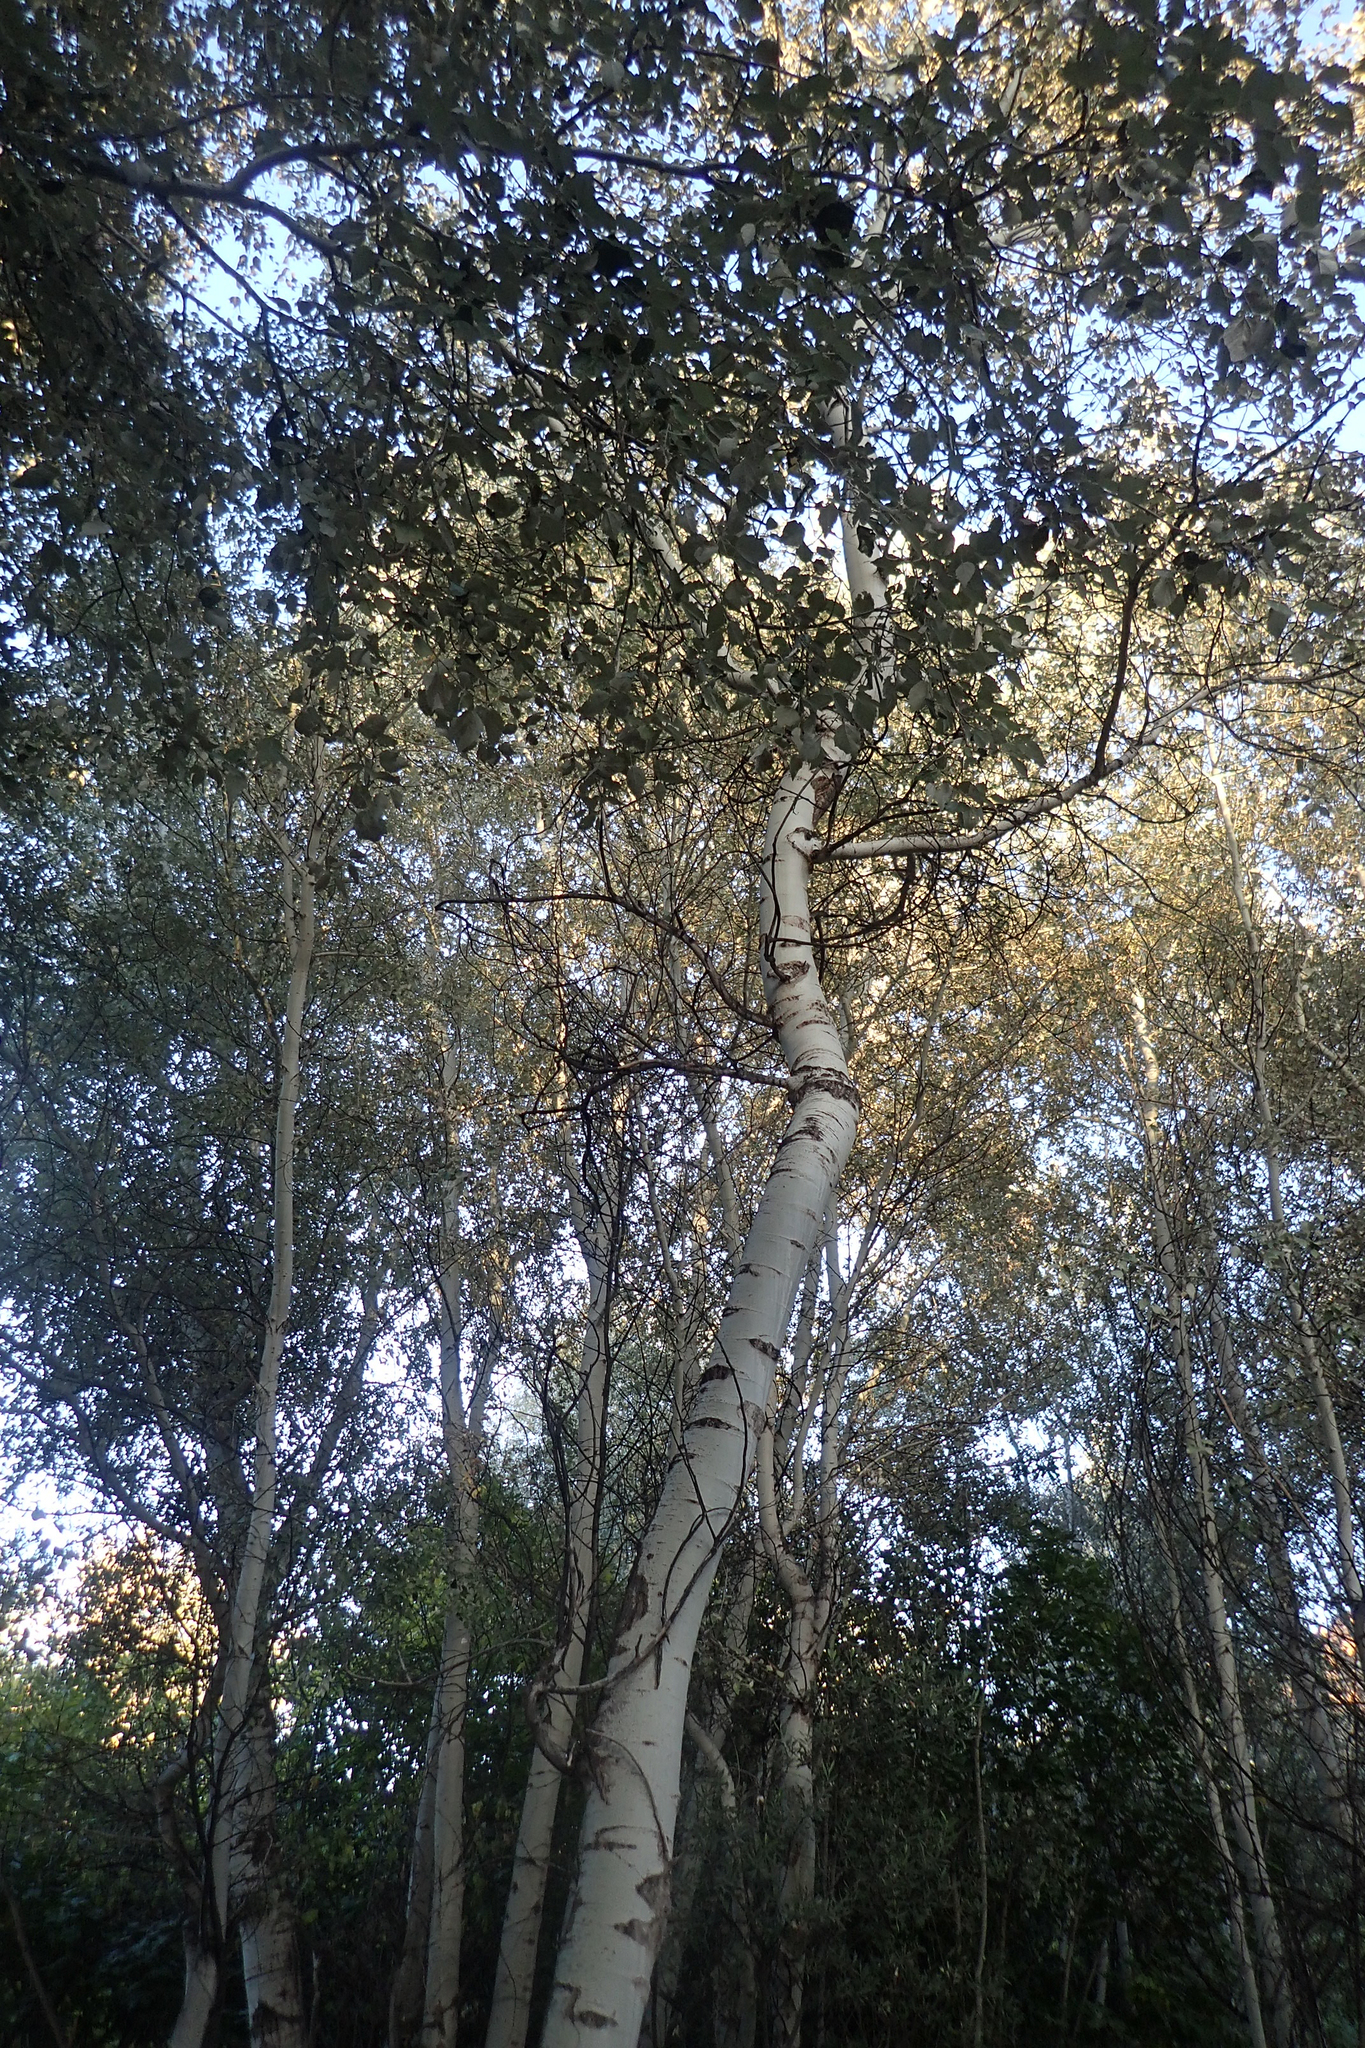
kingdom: Plantae
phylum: Tracheophyta
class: Magnoliopsida
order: Malpighiales
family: Salicaceae
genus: Populus
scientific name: Populus alba
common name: White poplar
